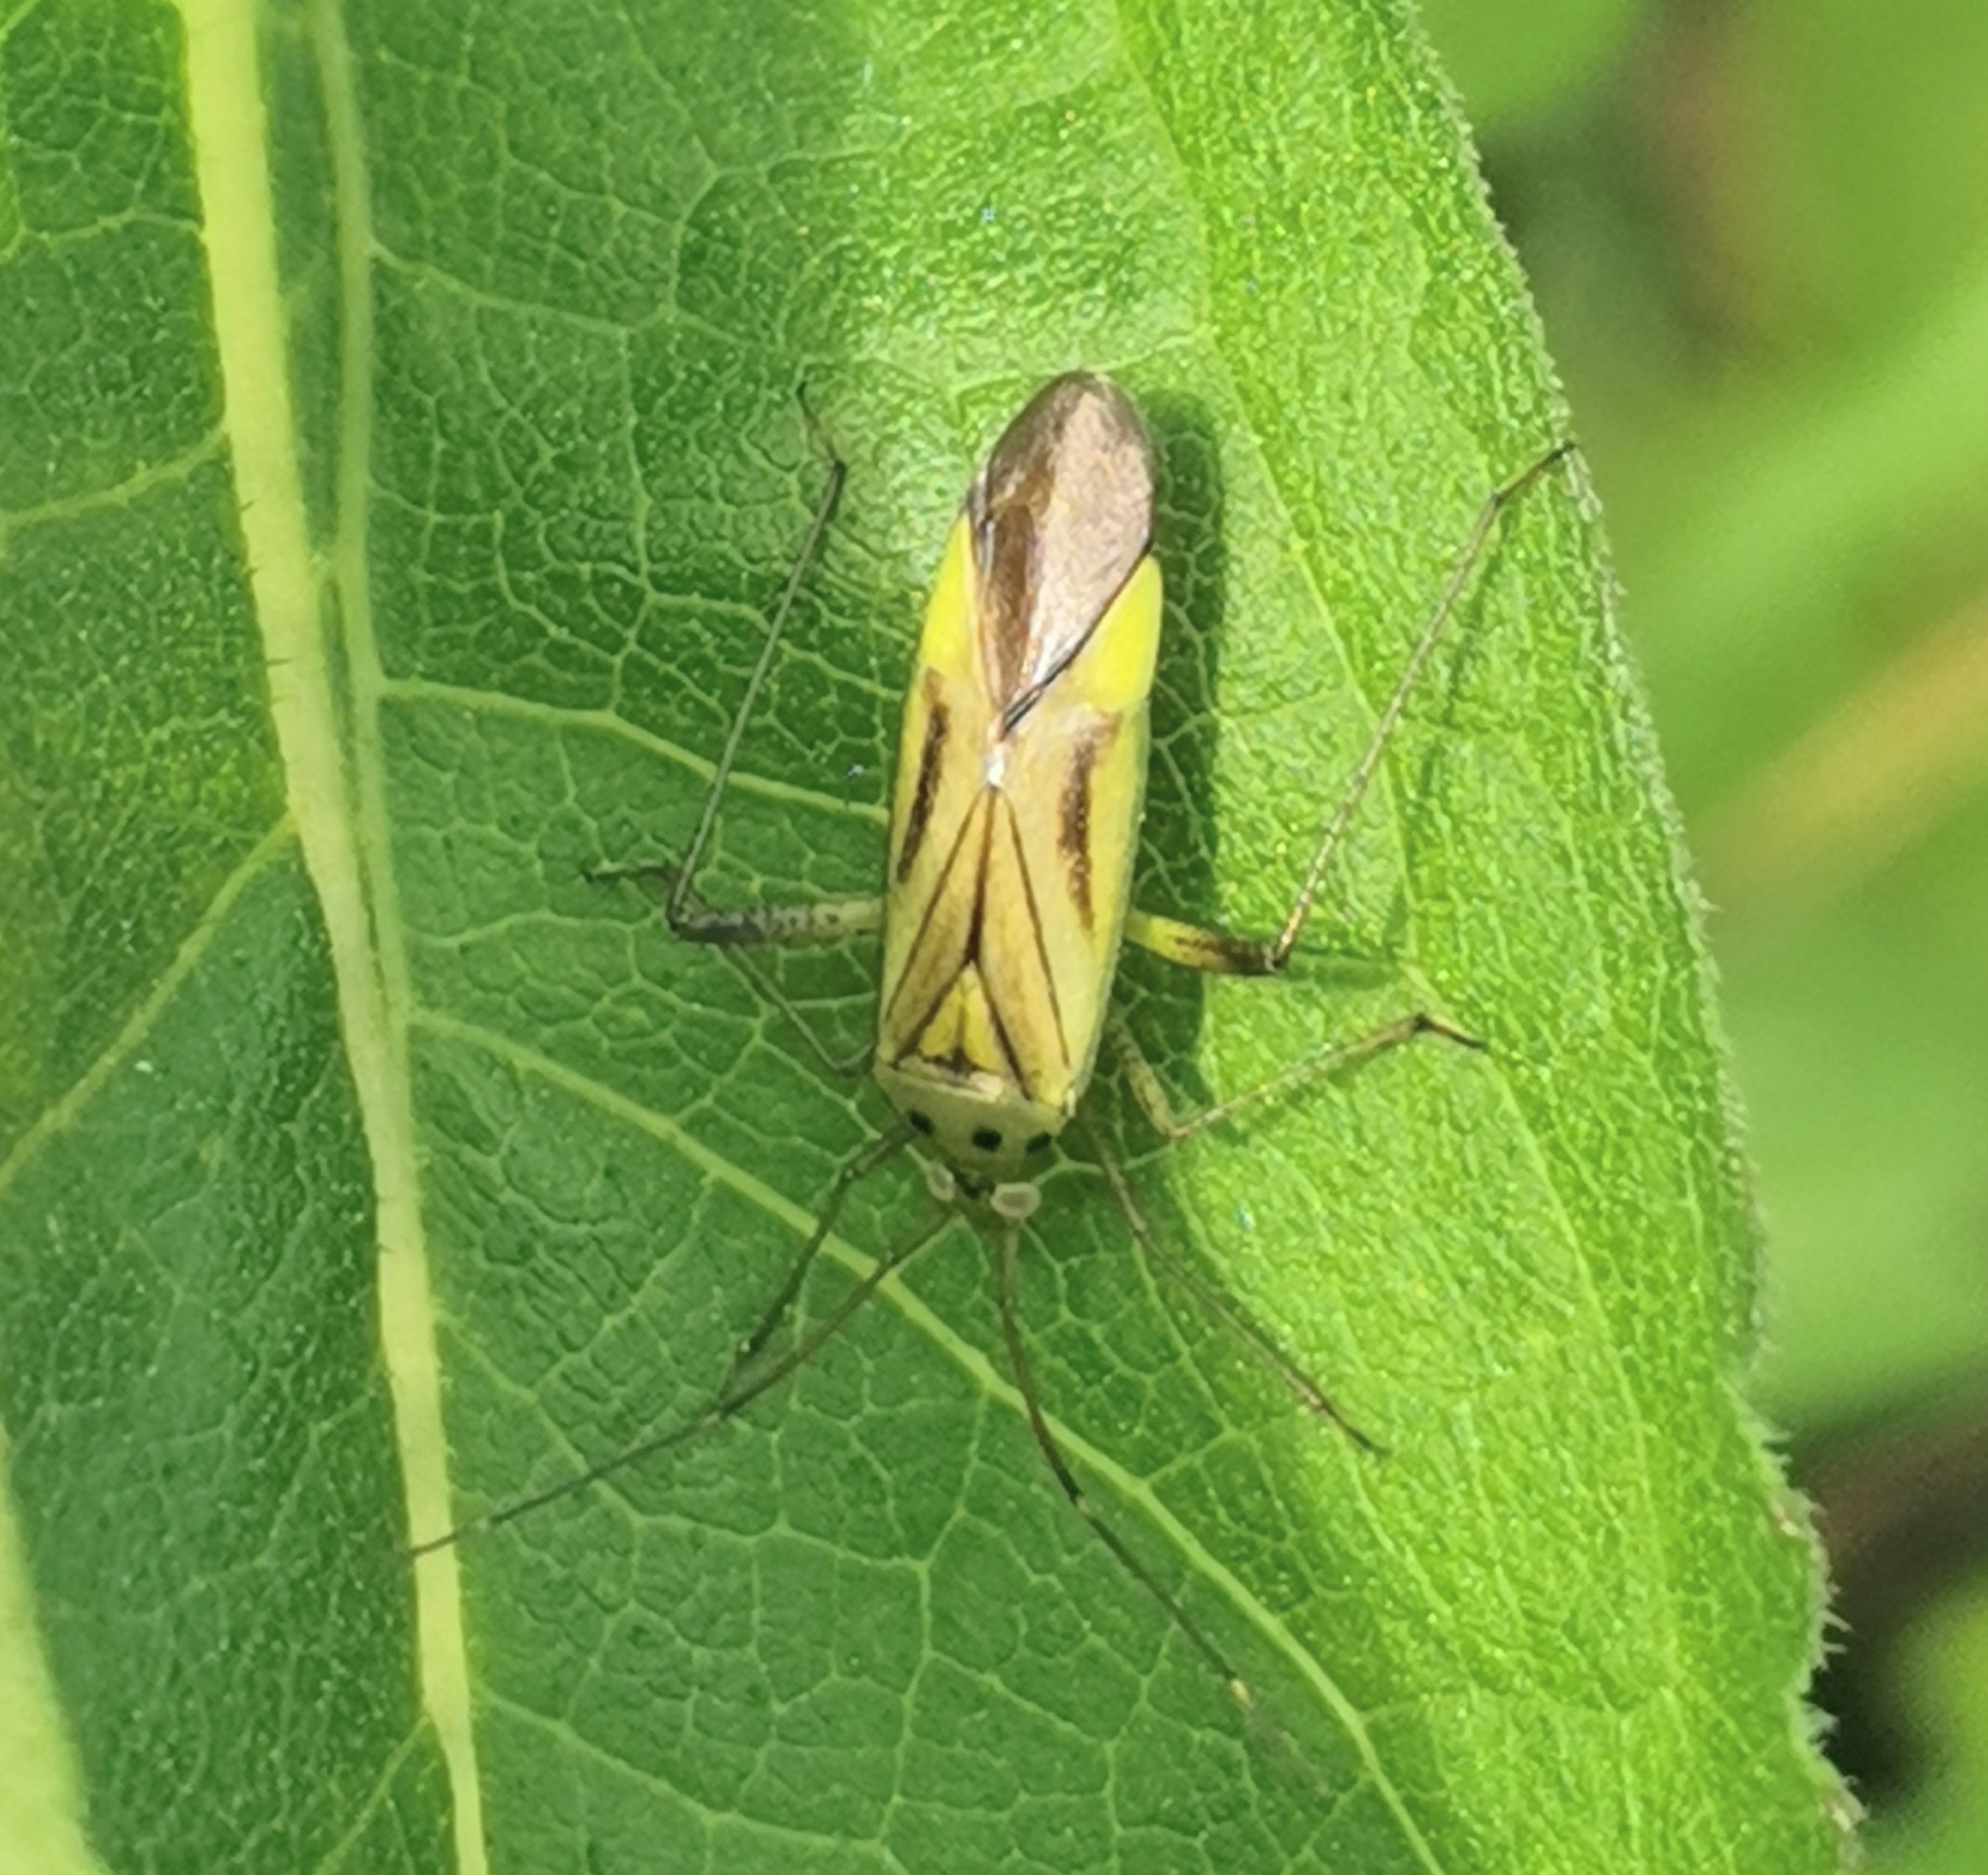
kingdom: Animalia
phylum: Arthropoda
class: Insecta
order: Hemiptera
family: Miridae
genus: Adelphocoris
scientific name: Adelphocoris quadripunctatus
